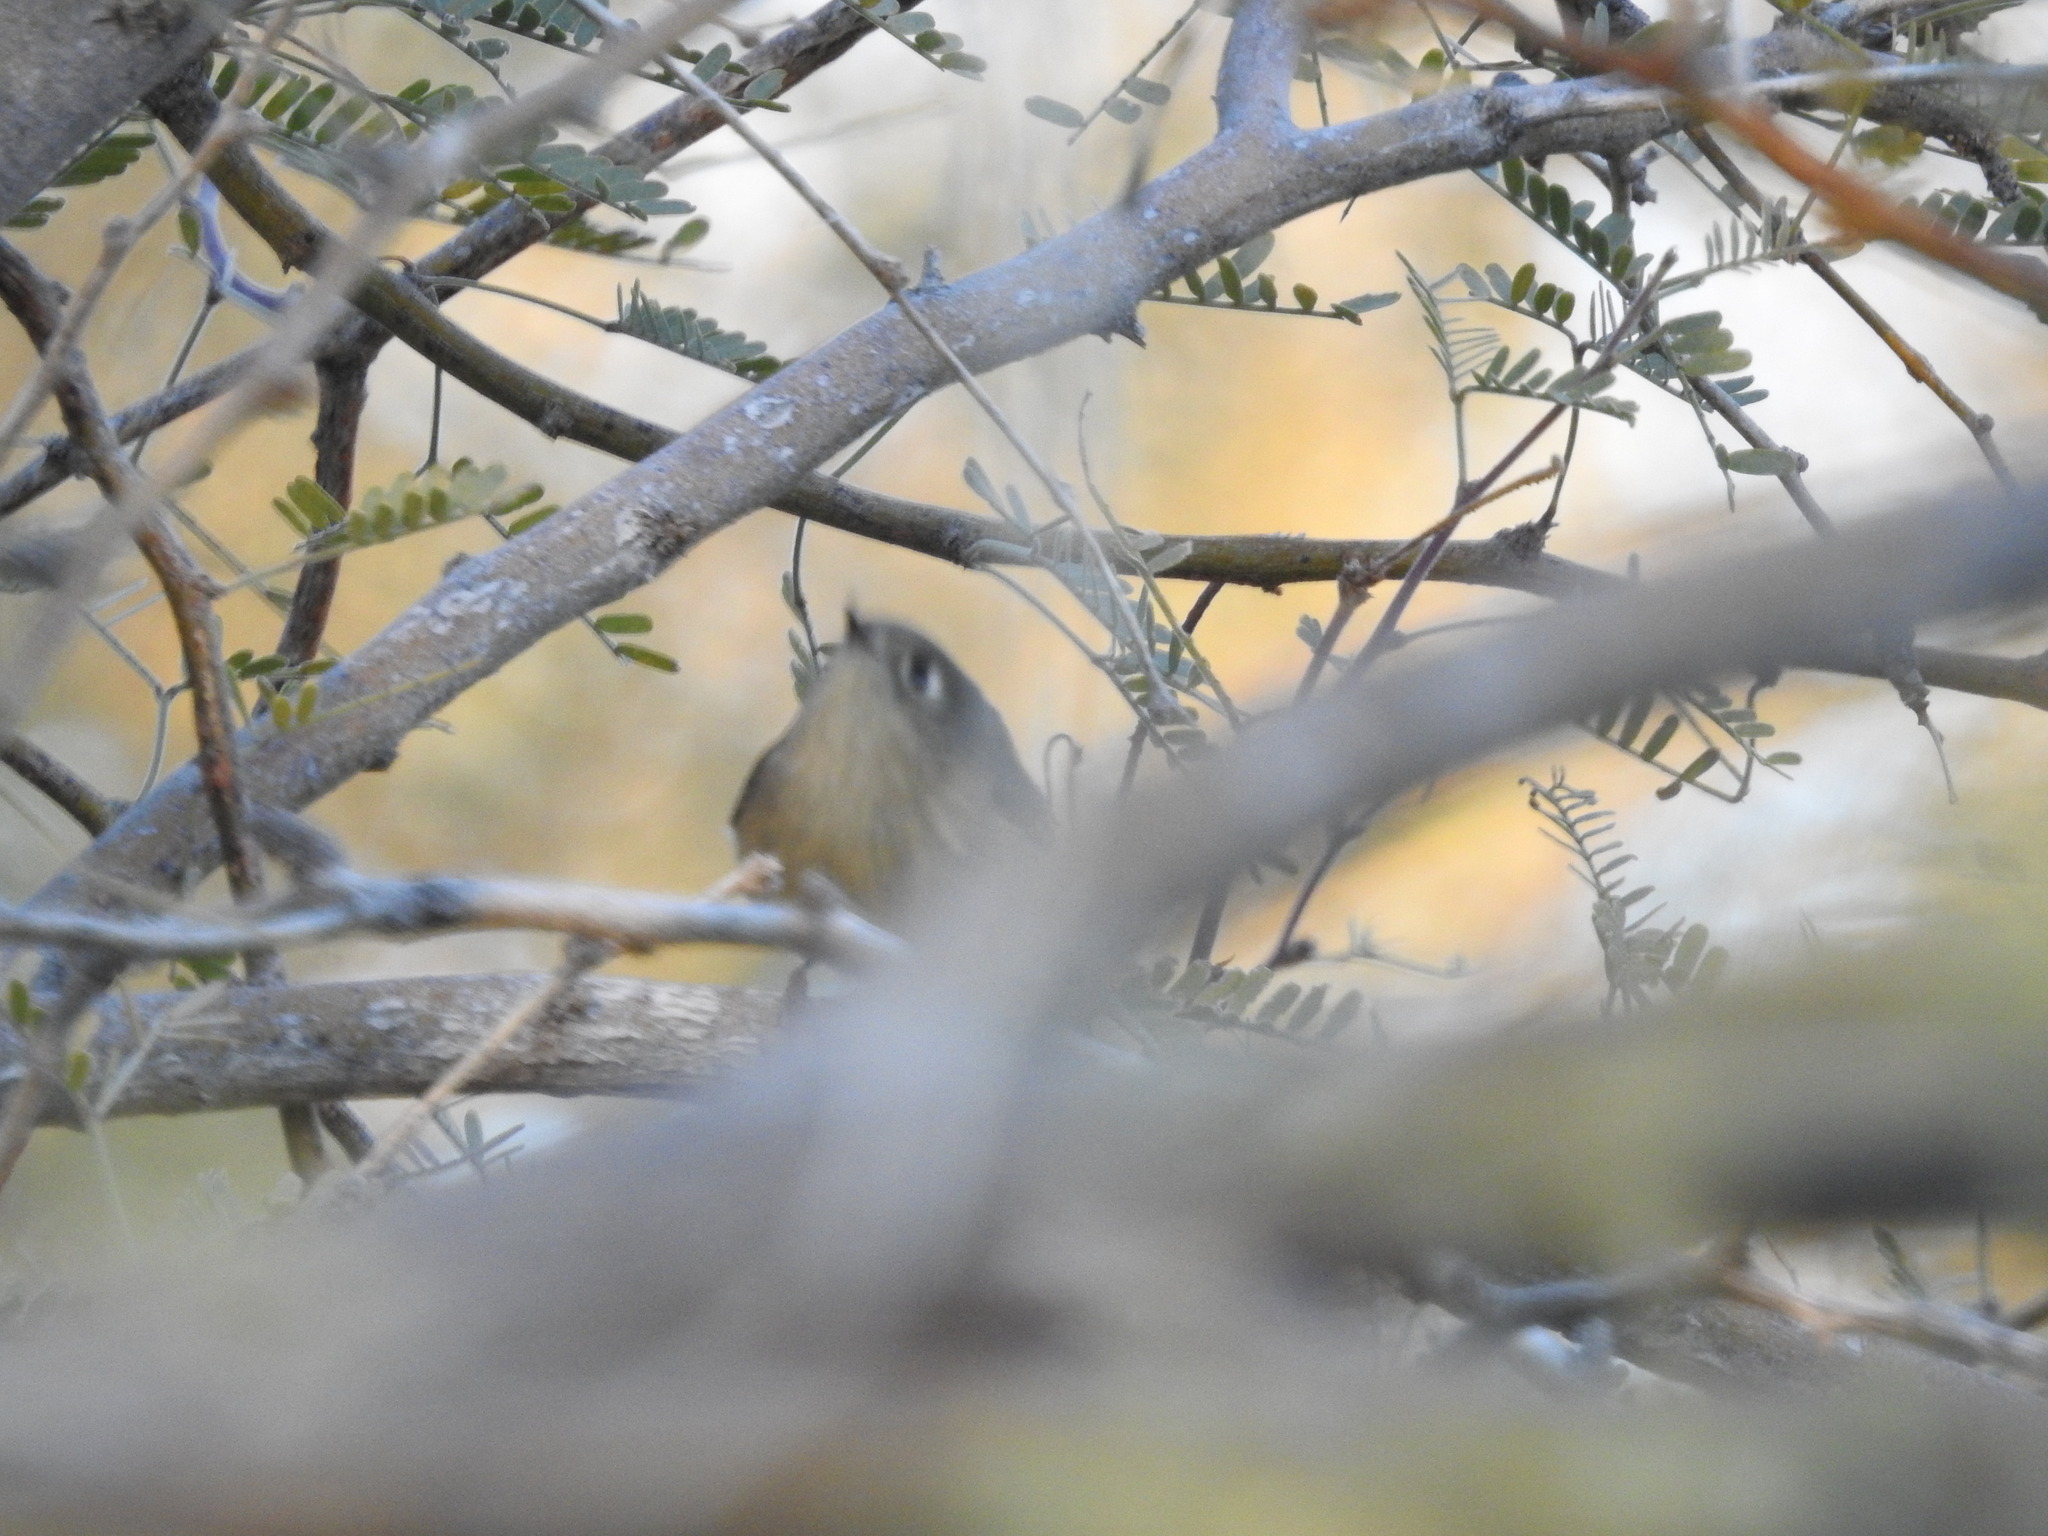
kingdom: Animalia
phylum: Chordata
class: Aves
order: Passeriformes
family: Regulidae
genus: Regulus
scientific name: Regulus calendula
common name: Ruby-crowned kinglet
